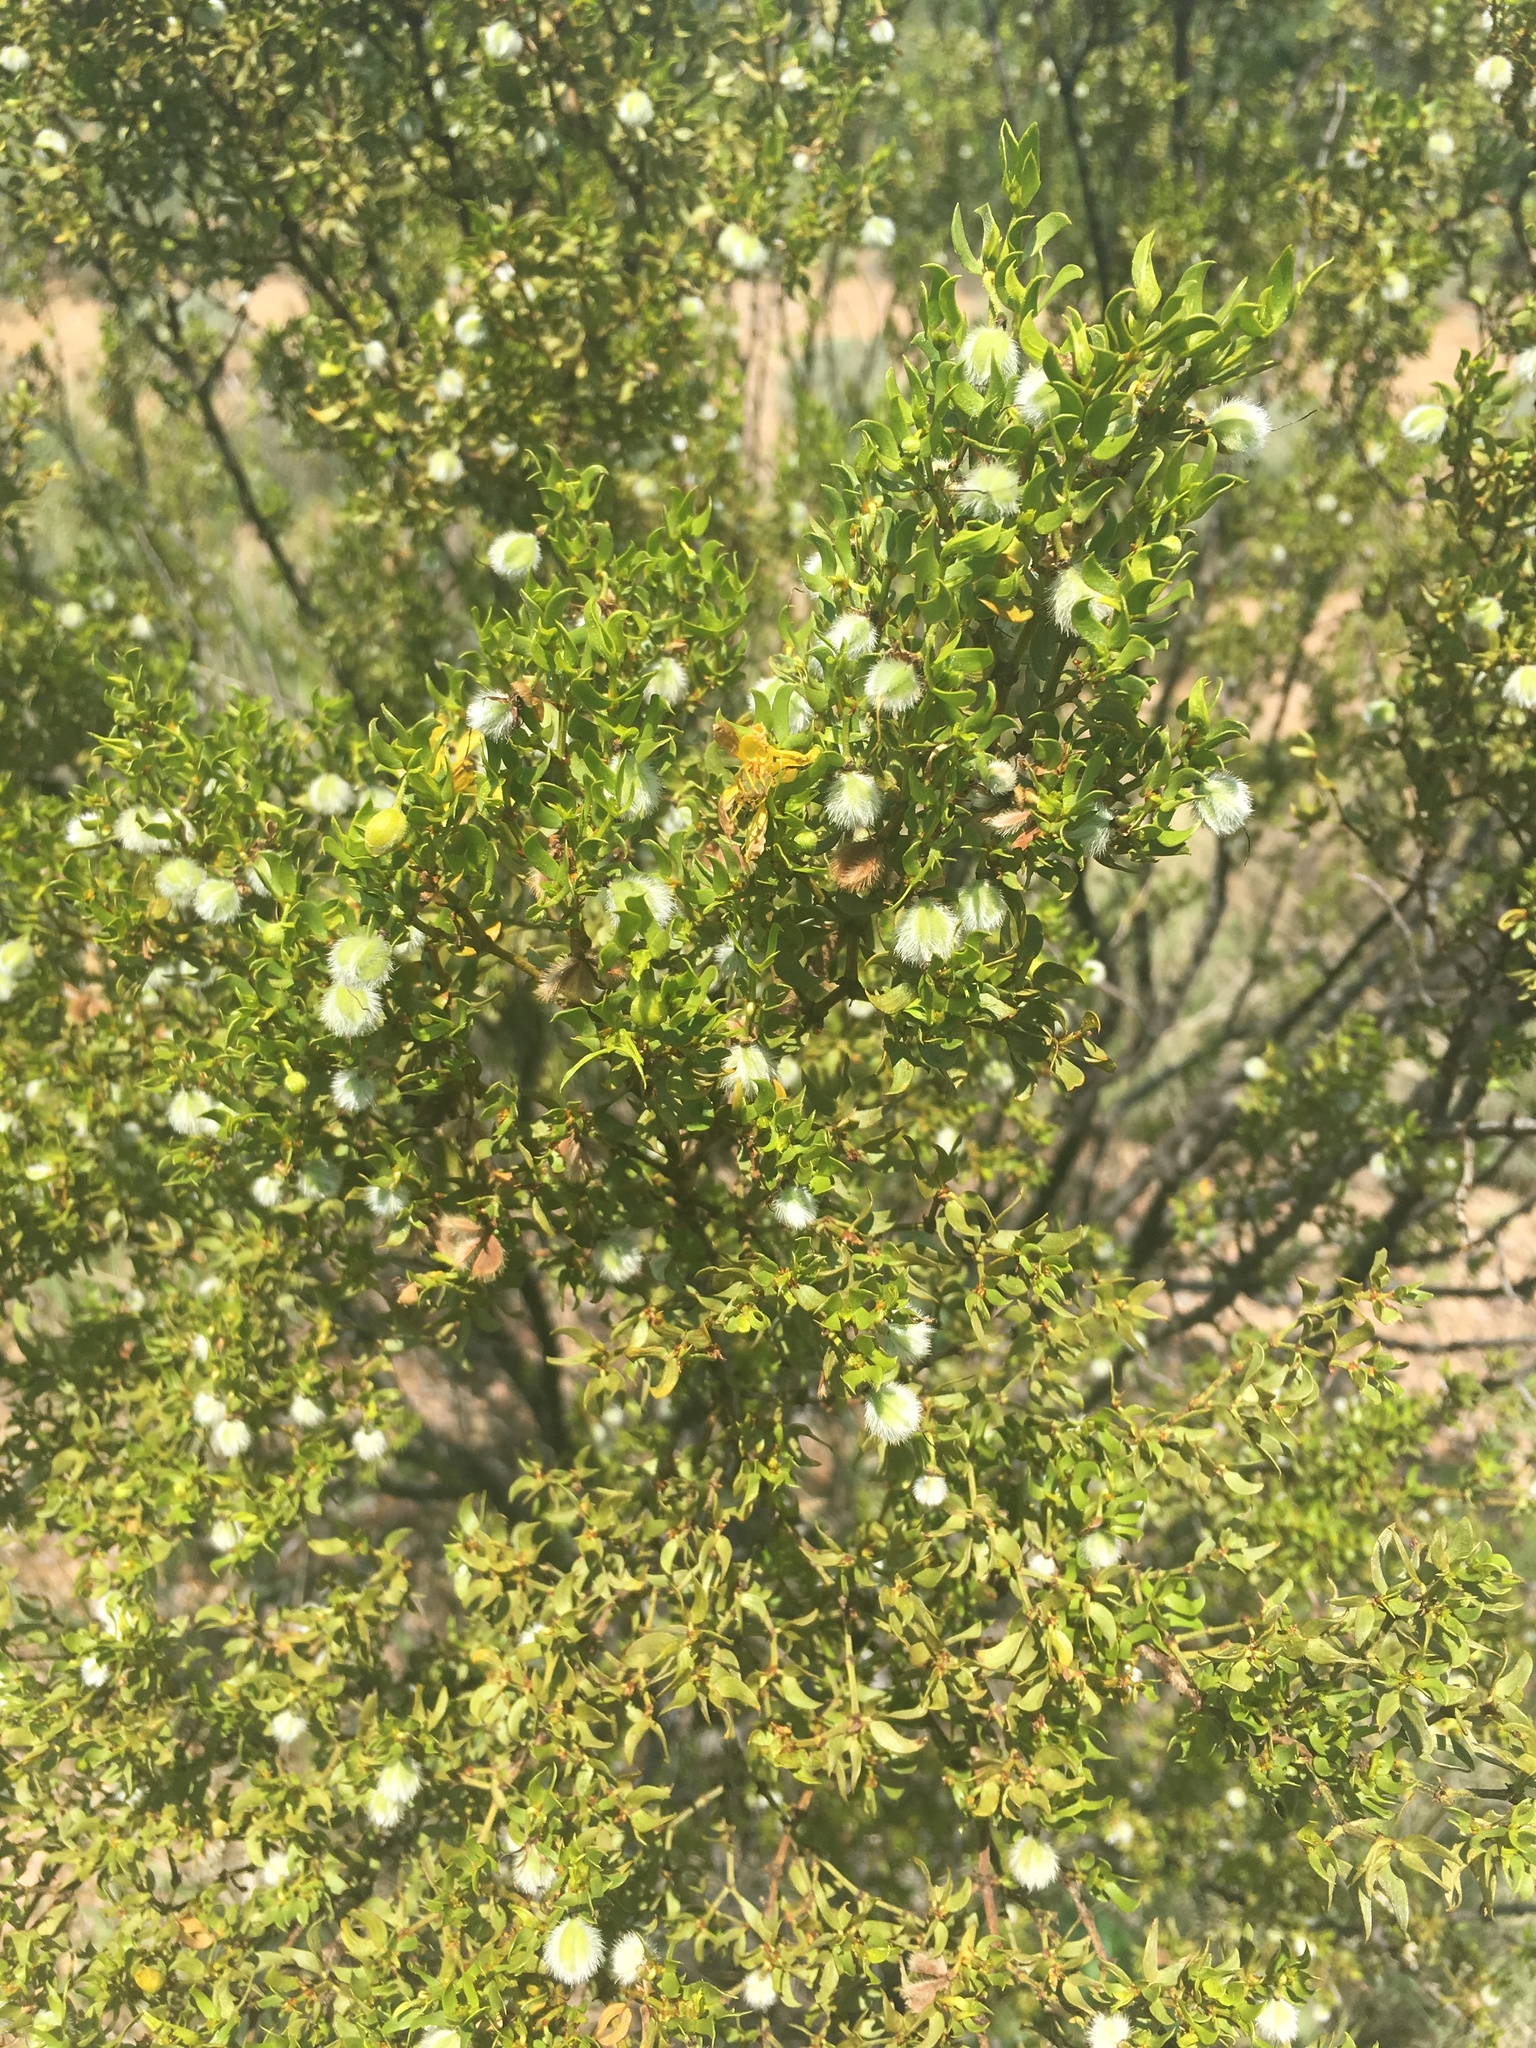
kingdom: Plantae
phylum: Tracheophyta
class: Magnoliopsida
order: Zygophyllales
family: Zygophyllaceae
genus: Larrea
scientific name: Larrea tridentata
